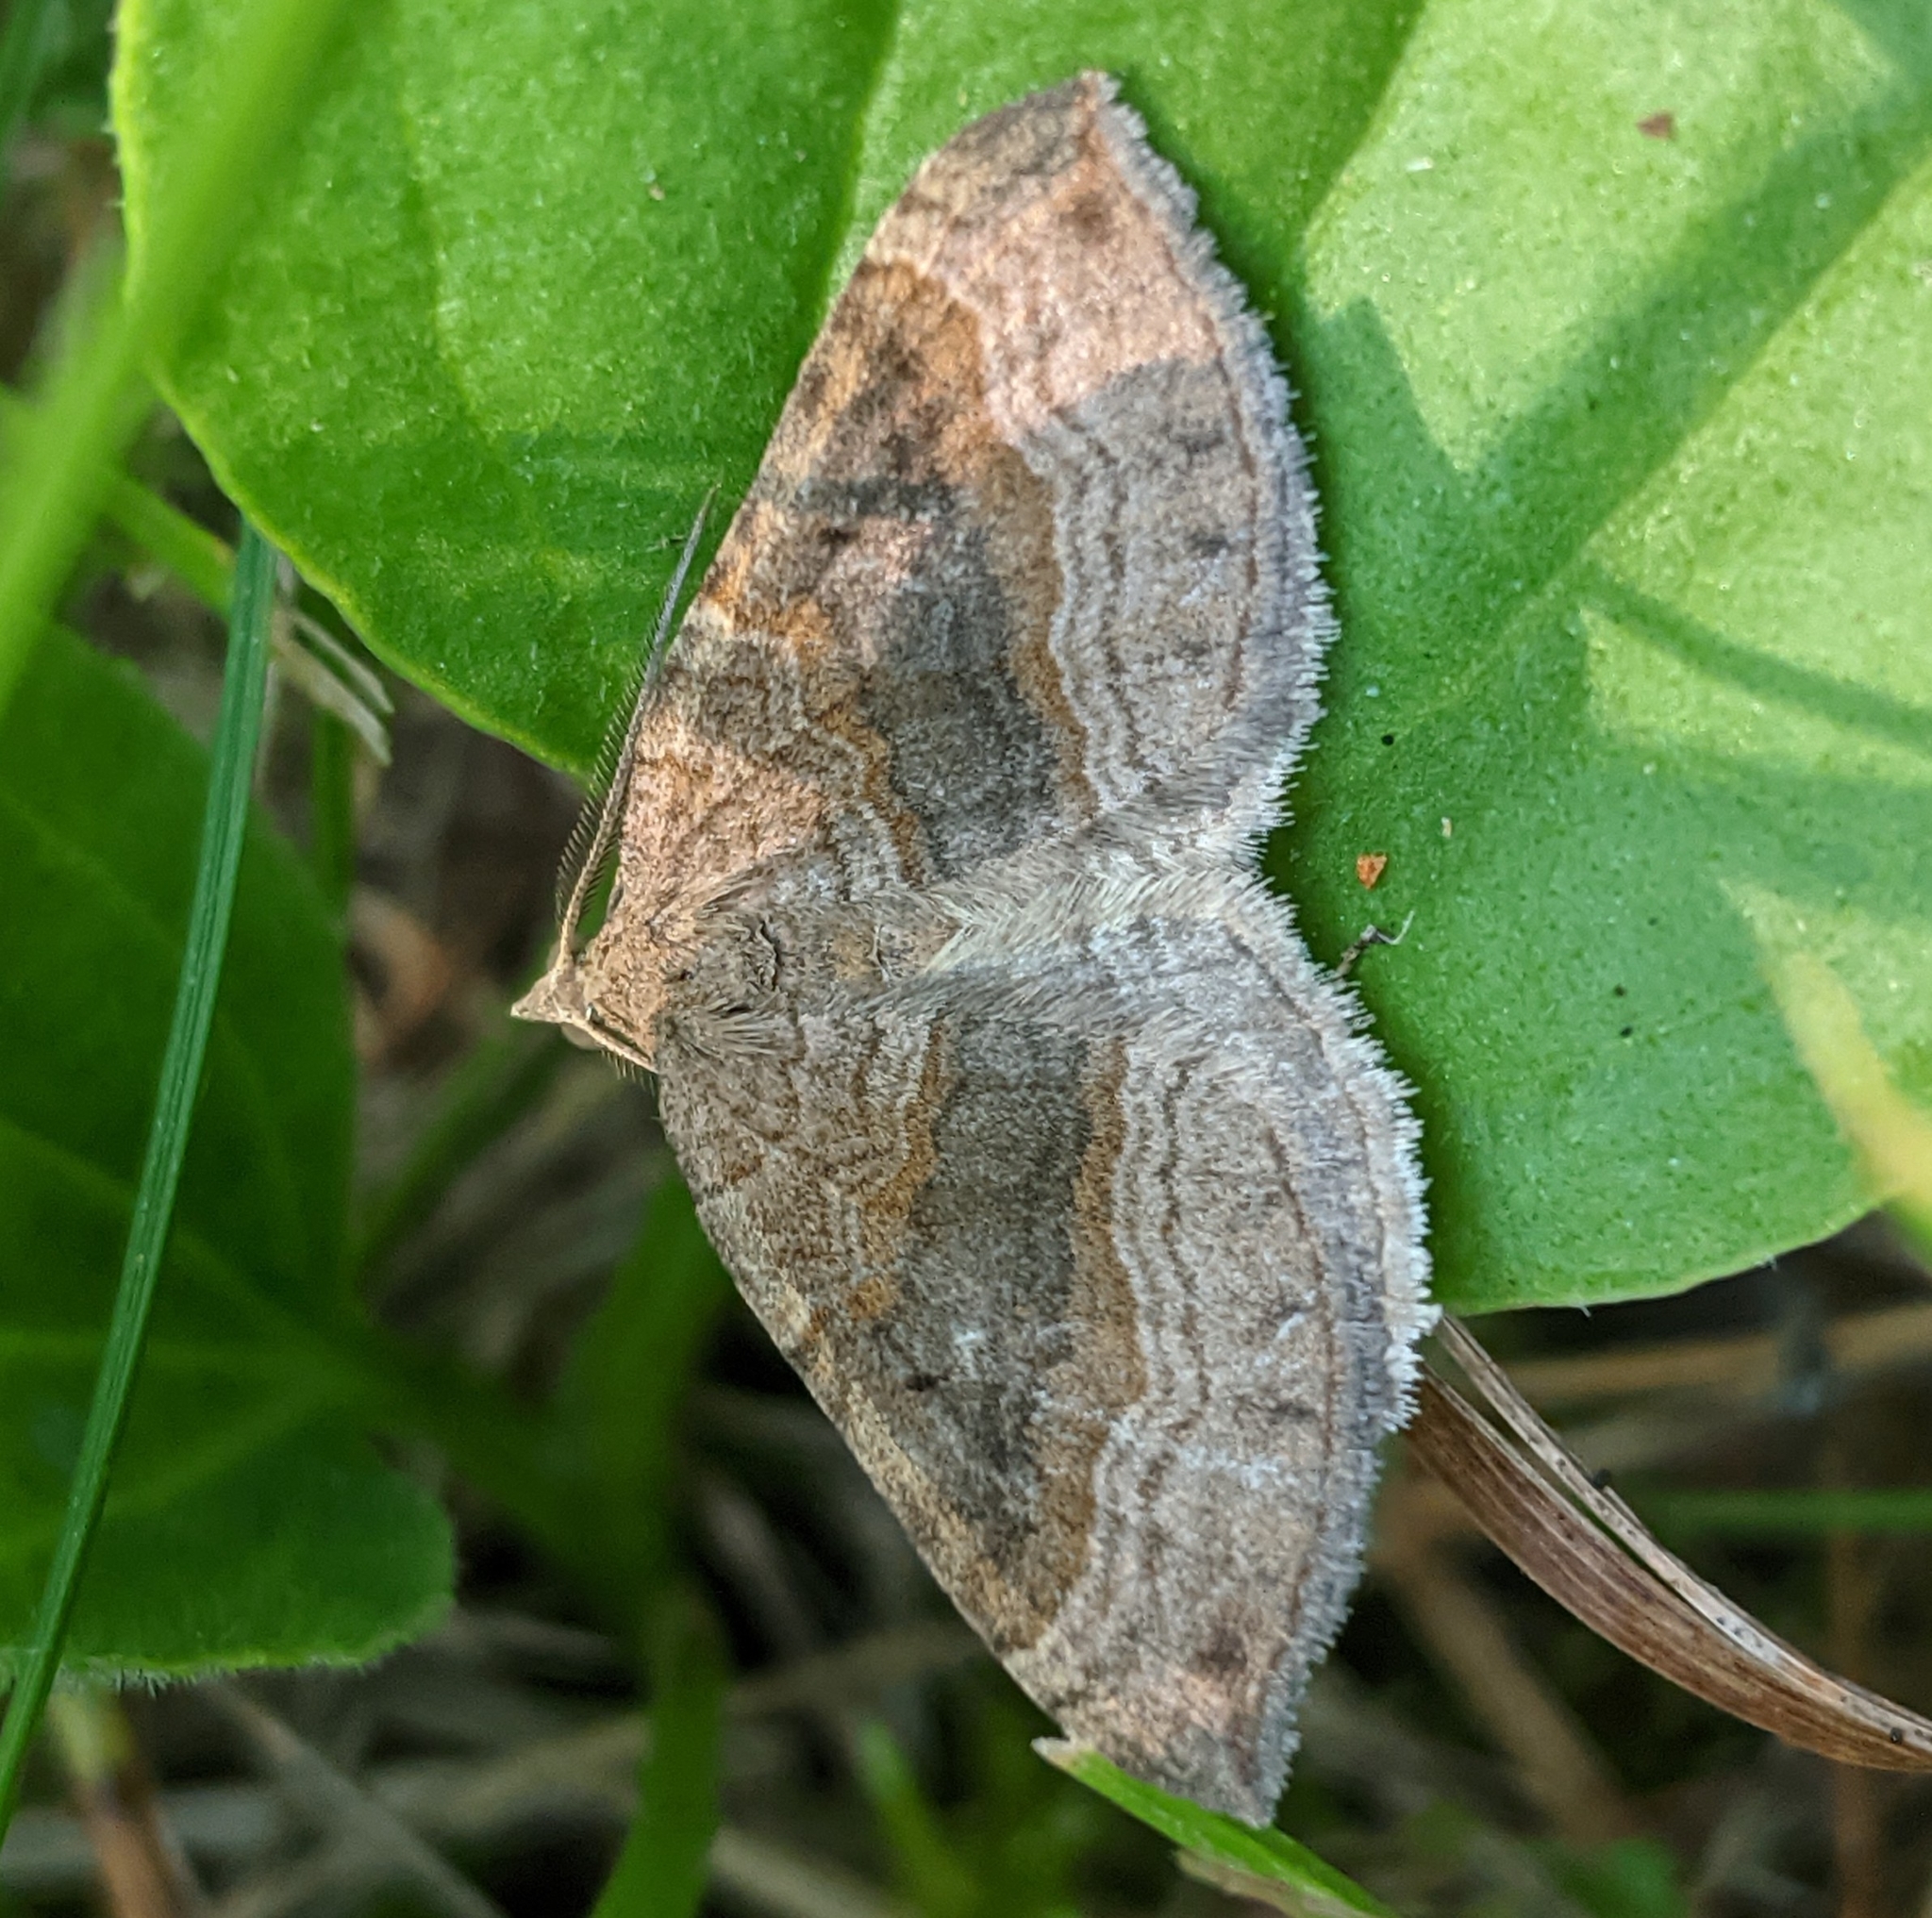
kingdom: Animalia
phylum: Arthropoda
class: Insecta
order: Lepidoptera
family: Geometridae
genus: Scotopteryx
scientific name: Scotopteryx chenopodiata
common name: Shaded broad-bar
